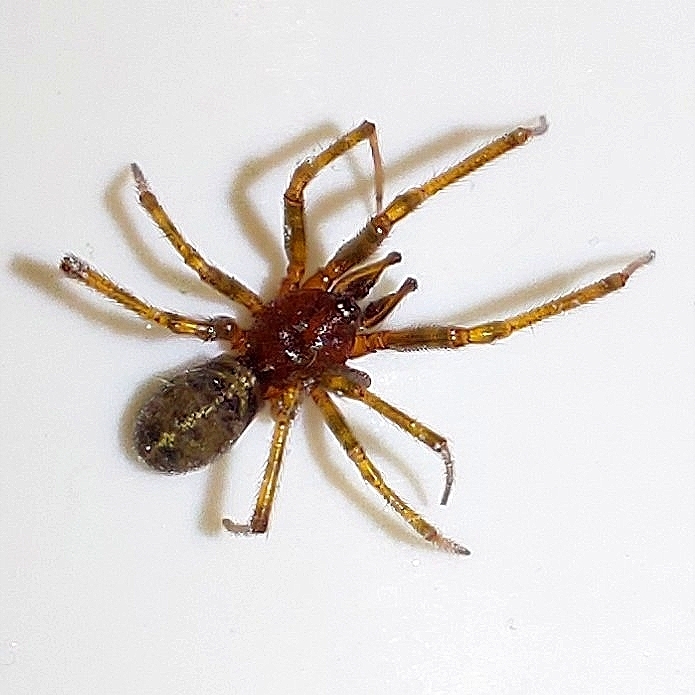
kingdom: Animalia
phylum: Arthropoda
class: Arachnida
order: Araneae
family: Theridiidae
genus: Steatoda
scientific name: Steatoda castanea
